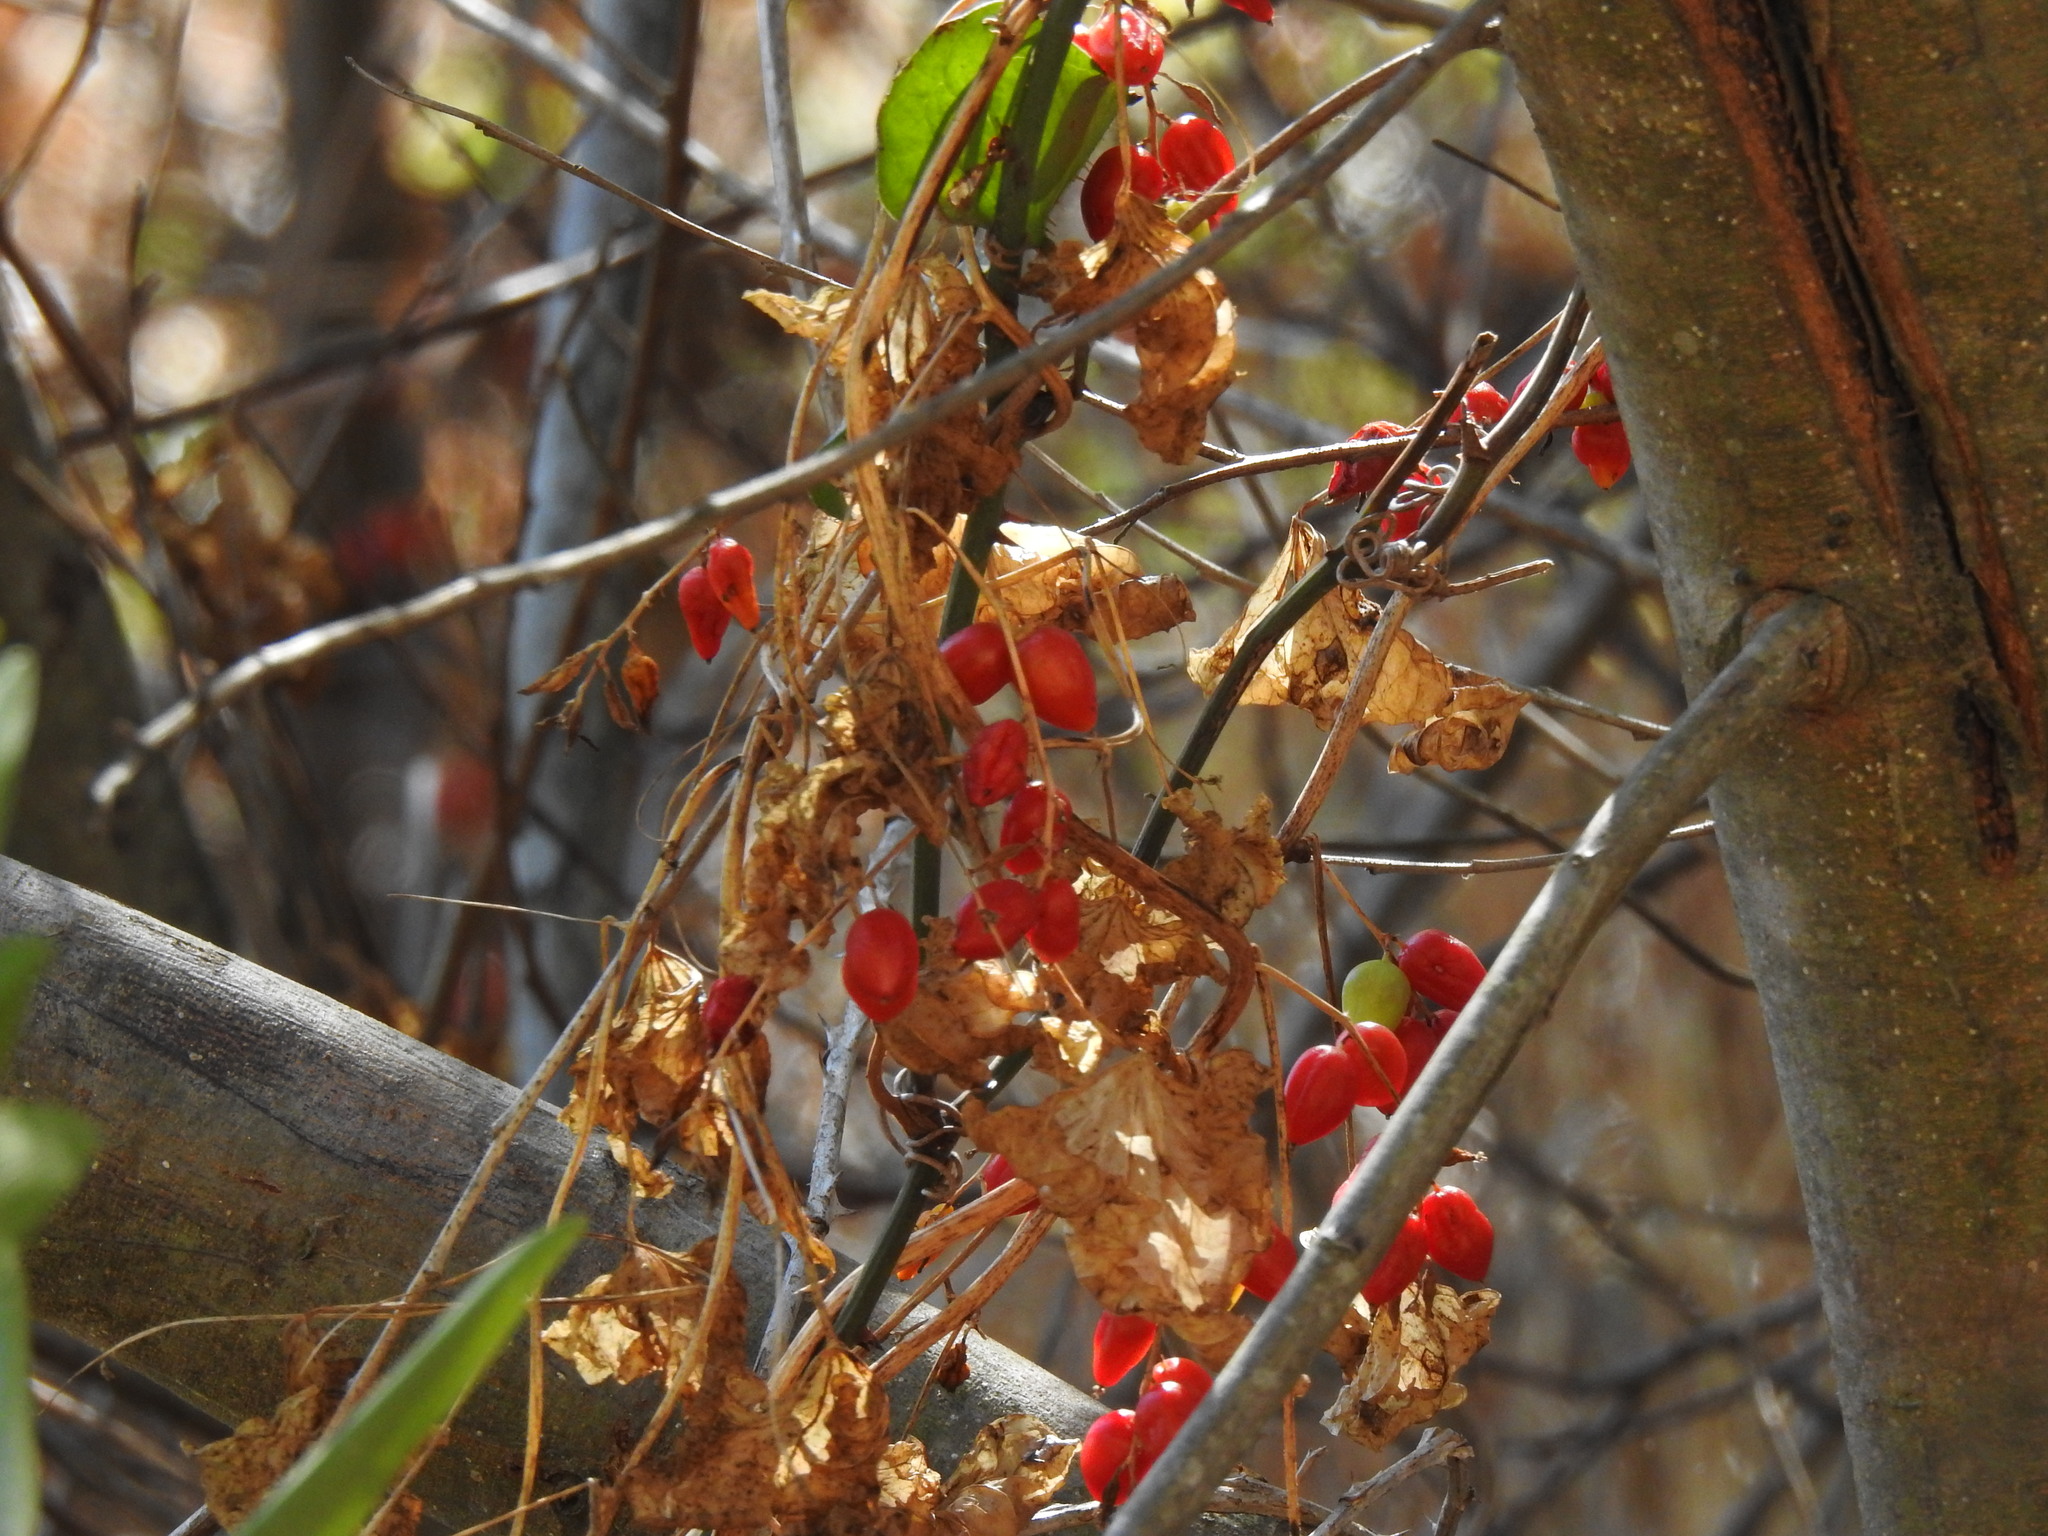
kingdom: Plantae
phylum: Tracheophyta
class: Liliopsida
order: Dioscoreales
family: Dioscoreaceae
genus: Dioscorea
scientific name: Dioscorea communis
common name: Black-bindweed
